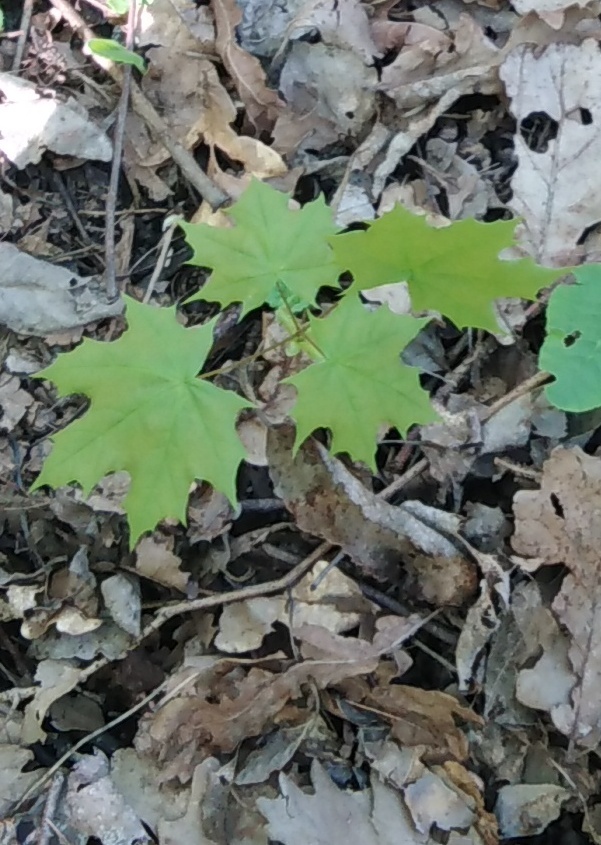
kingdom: Plantae
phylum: Tracheophyta
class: Magnoliopsida
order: Sapindales
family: Sapindaceae
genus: Acer
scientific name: Acer platanoides
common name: Norway maple
